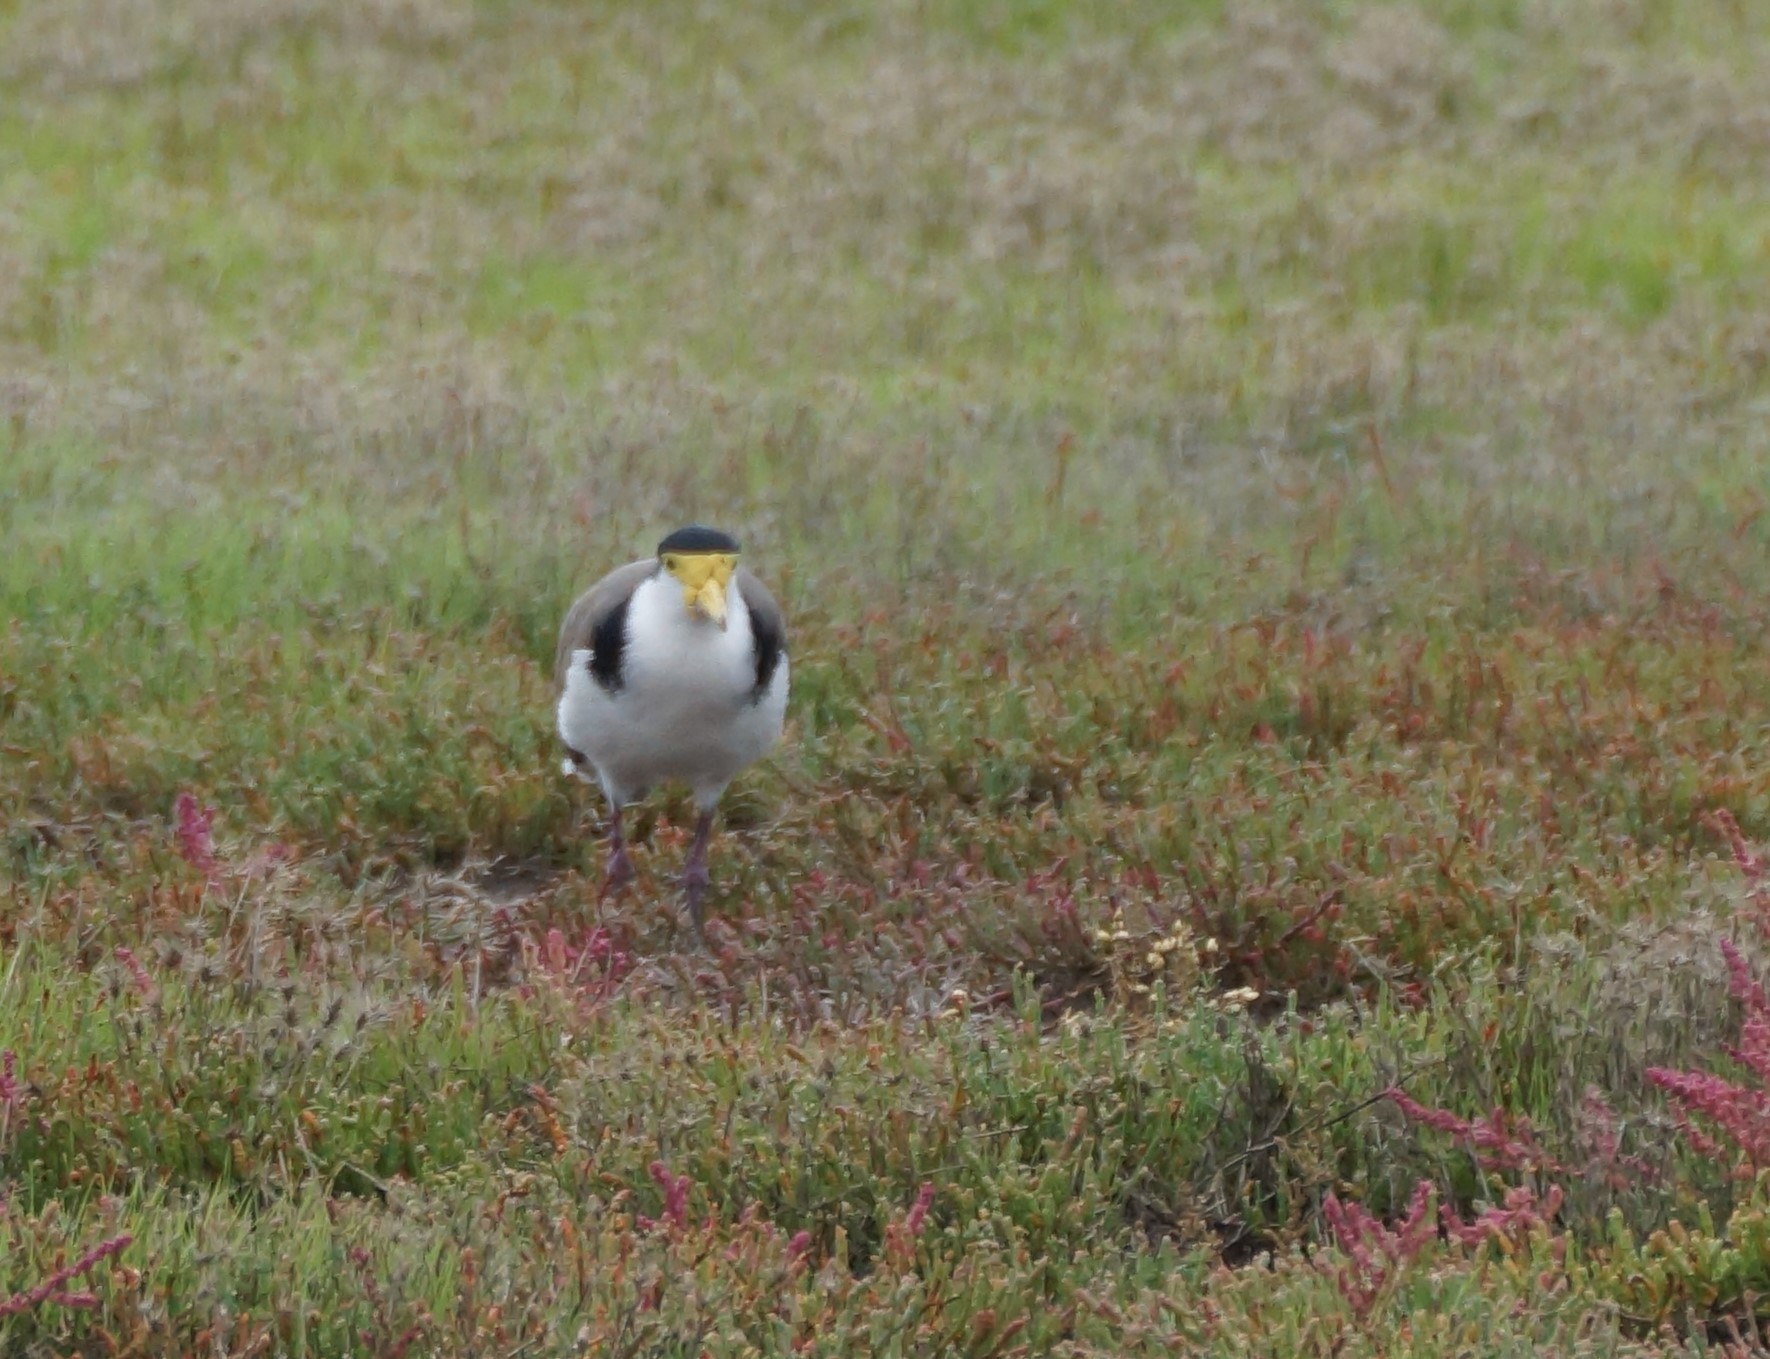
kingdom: Animalia
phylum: Chordata
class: Aves
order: Charadriiformes
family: Charadriidae
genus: Vanellus
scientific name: Vanellus miles
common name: Masked lapwing
